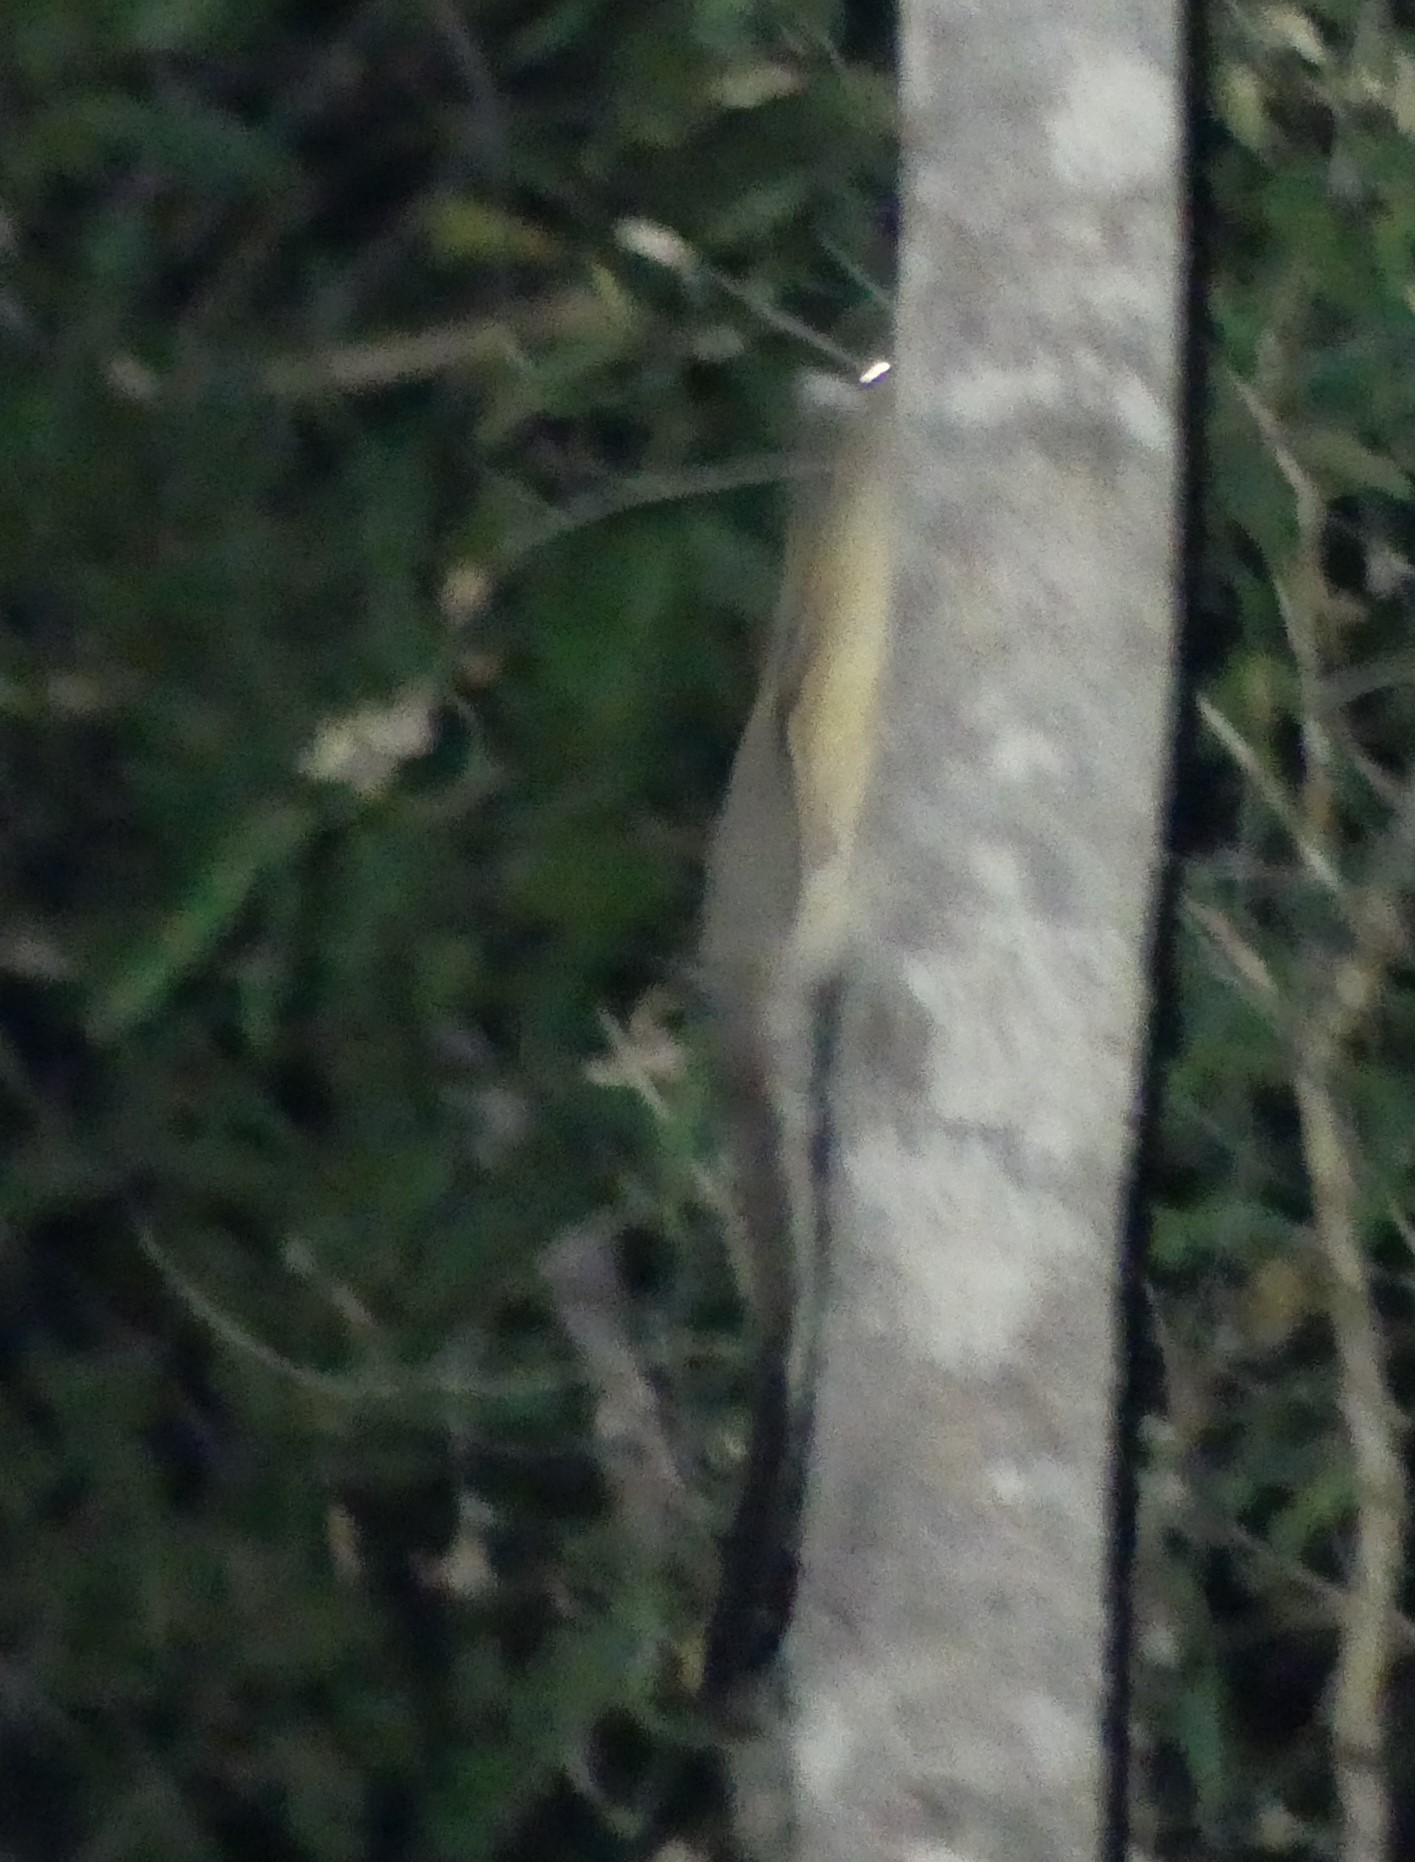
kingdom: Animalia
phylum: Chordata
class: Mammalia
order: Diprotodontia
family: Petauridae
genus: Petaurus
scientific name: Petaurus gracilis
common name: Mahogany glider
